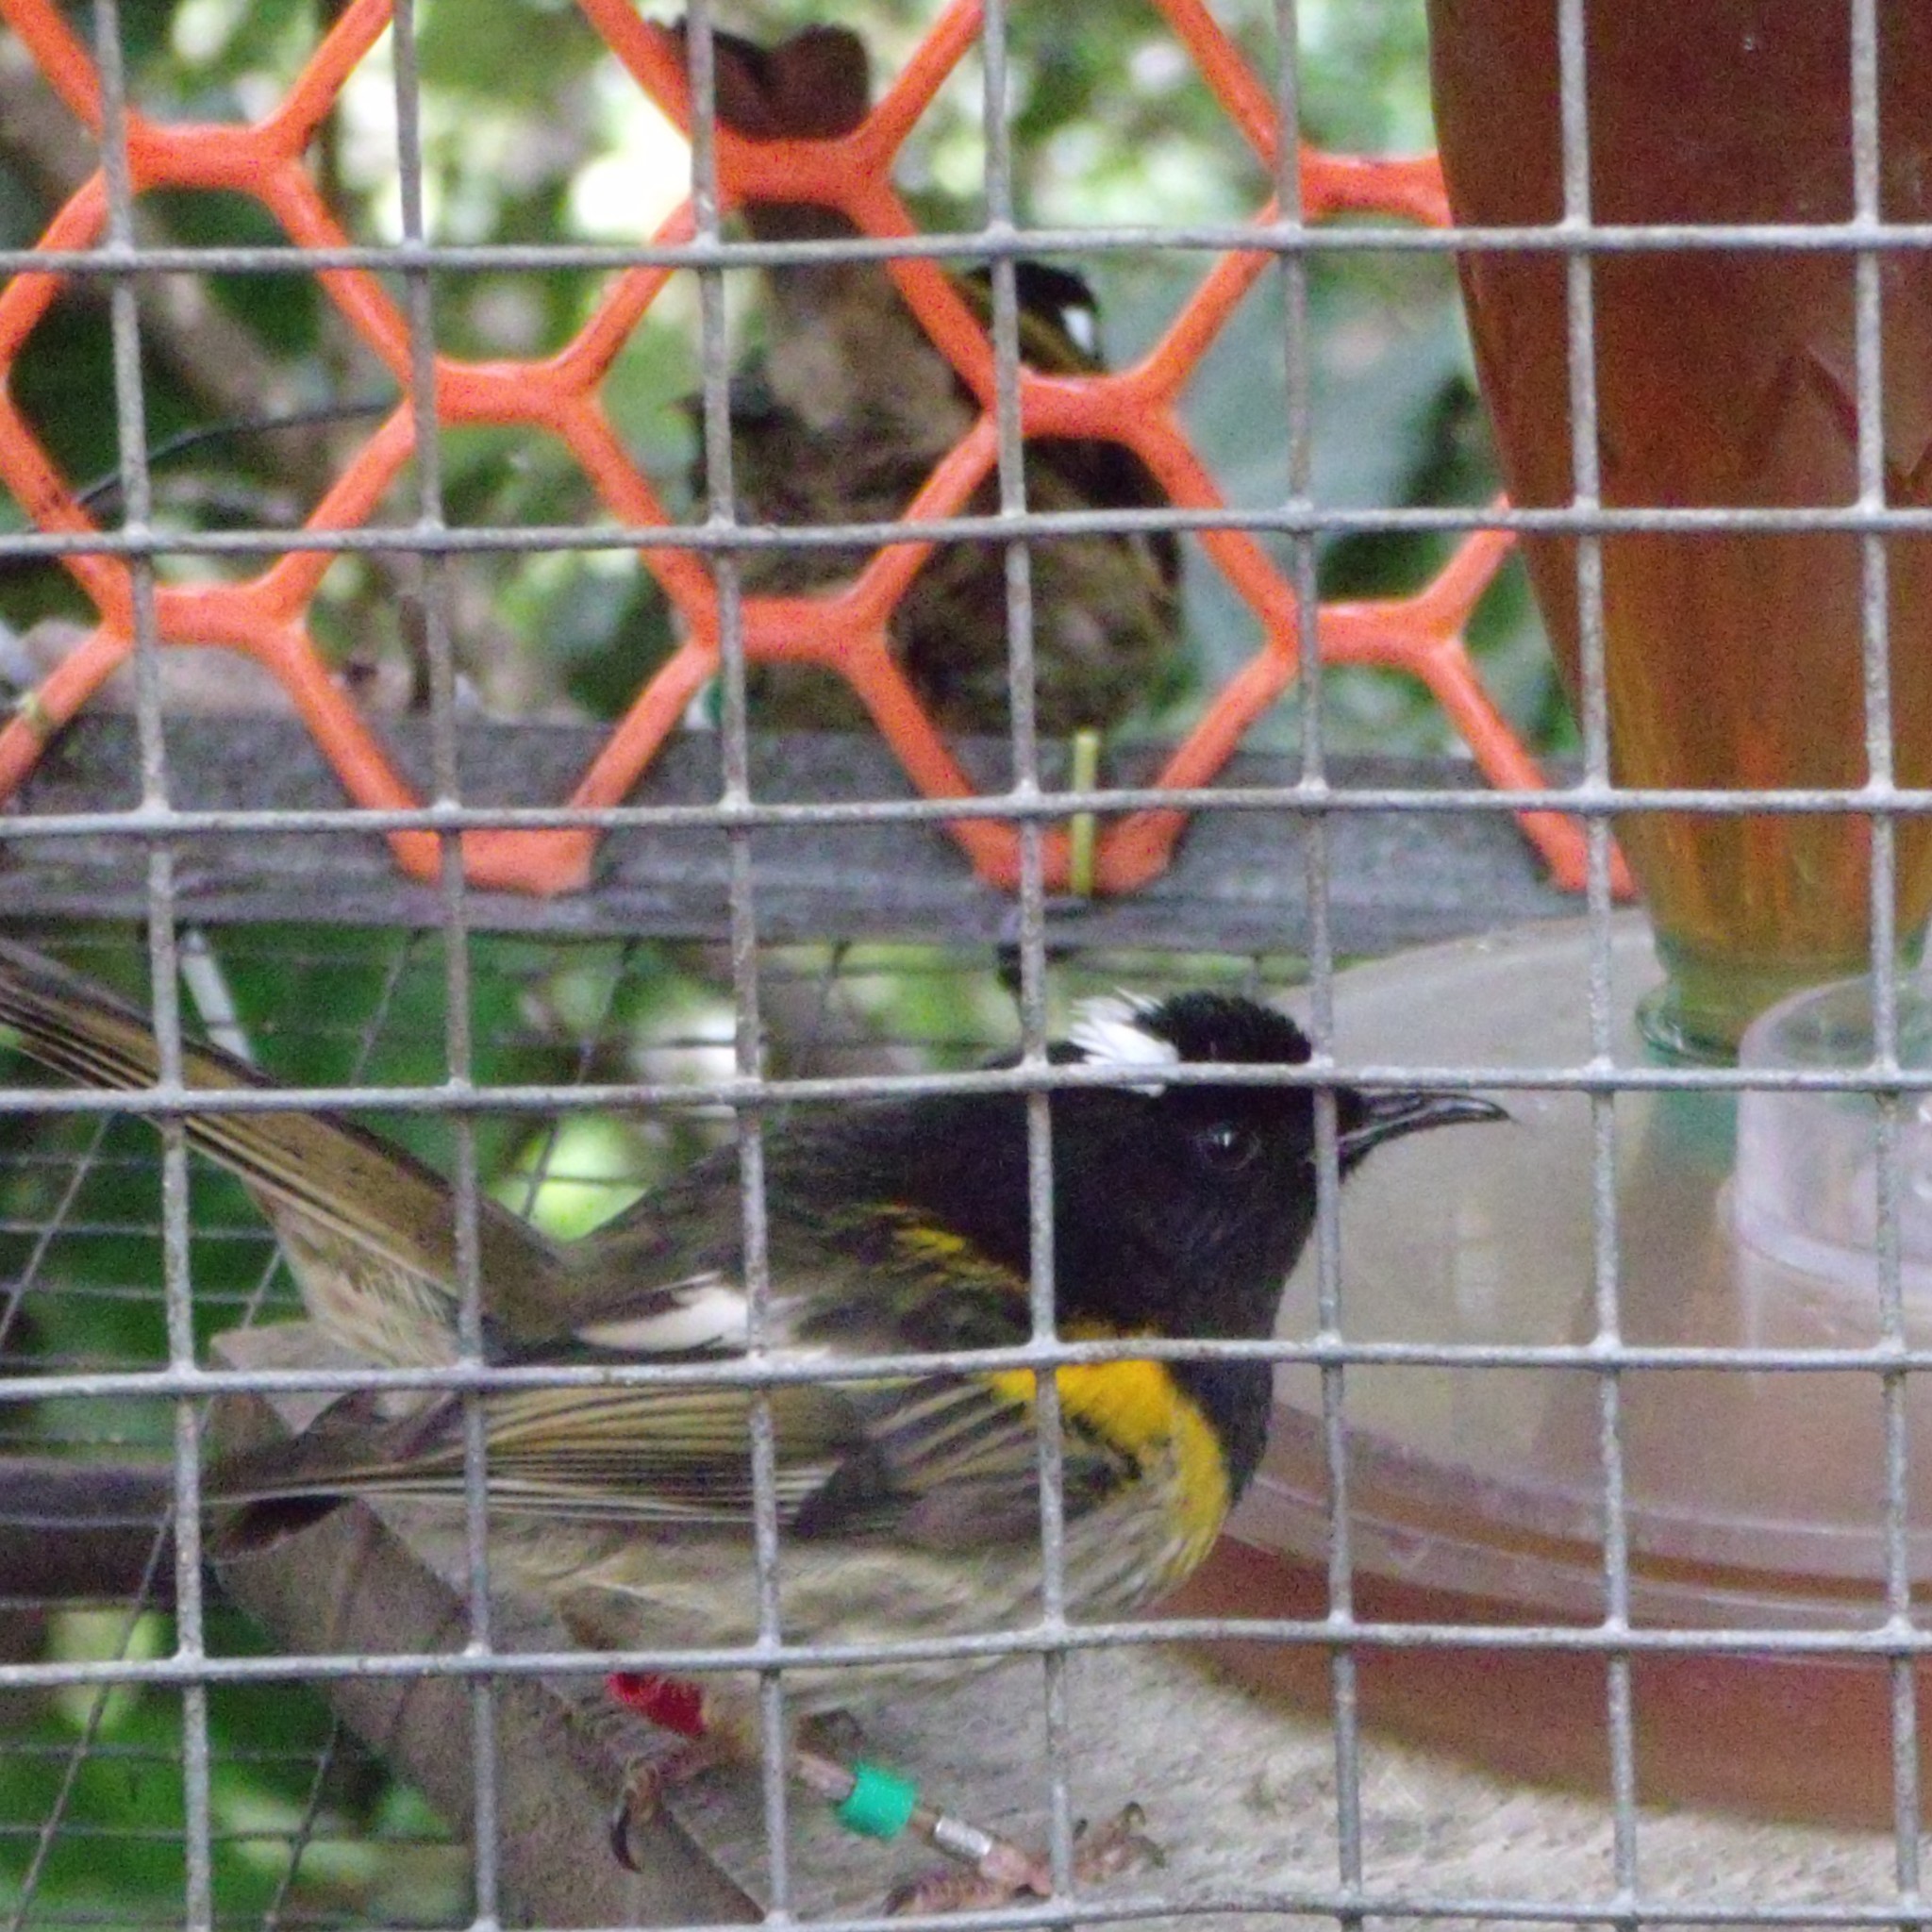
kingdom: Animalia
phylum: Chordata
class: Aves
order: Passeriformes
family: Notiomystidae
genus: Notiomystis
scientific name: Notiomystis cincta
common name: Stitchbird
